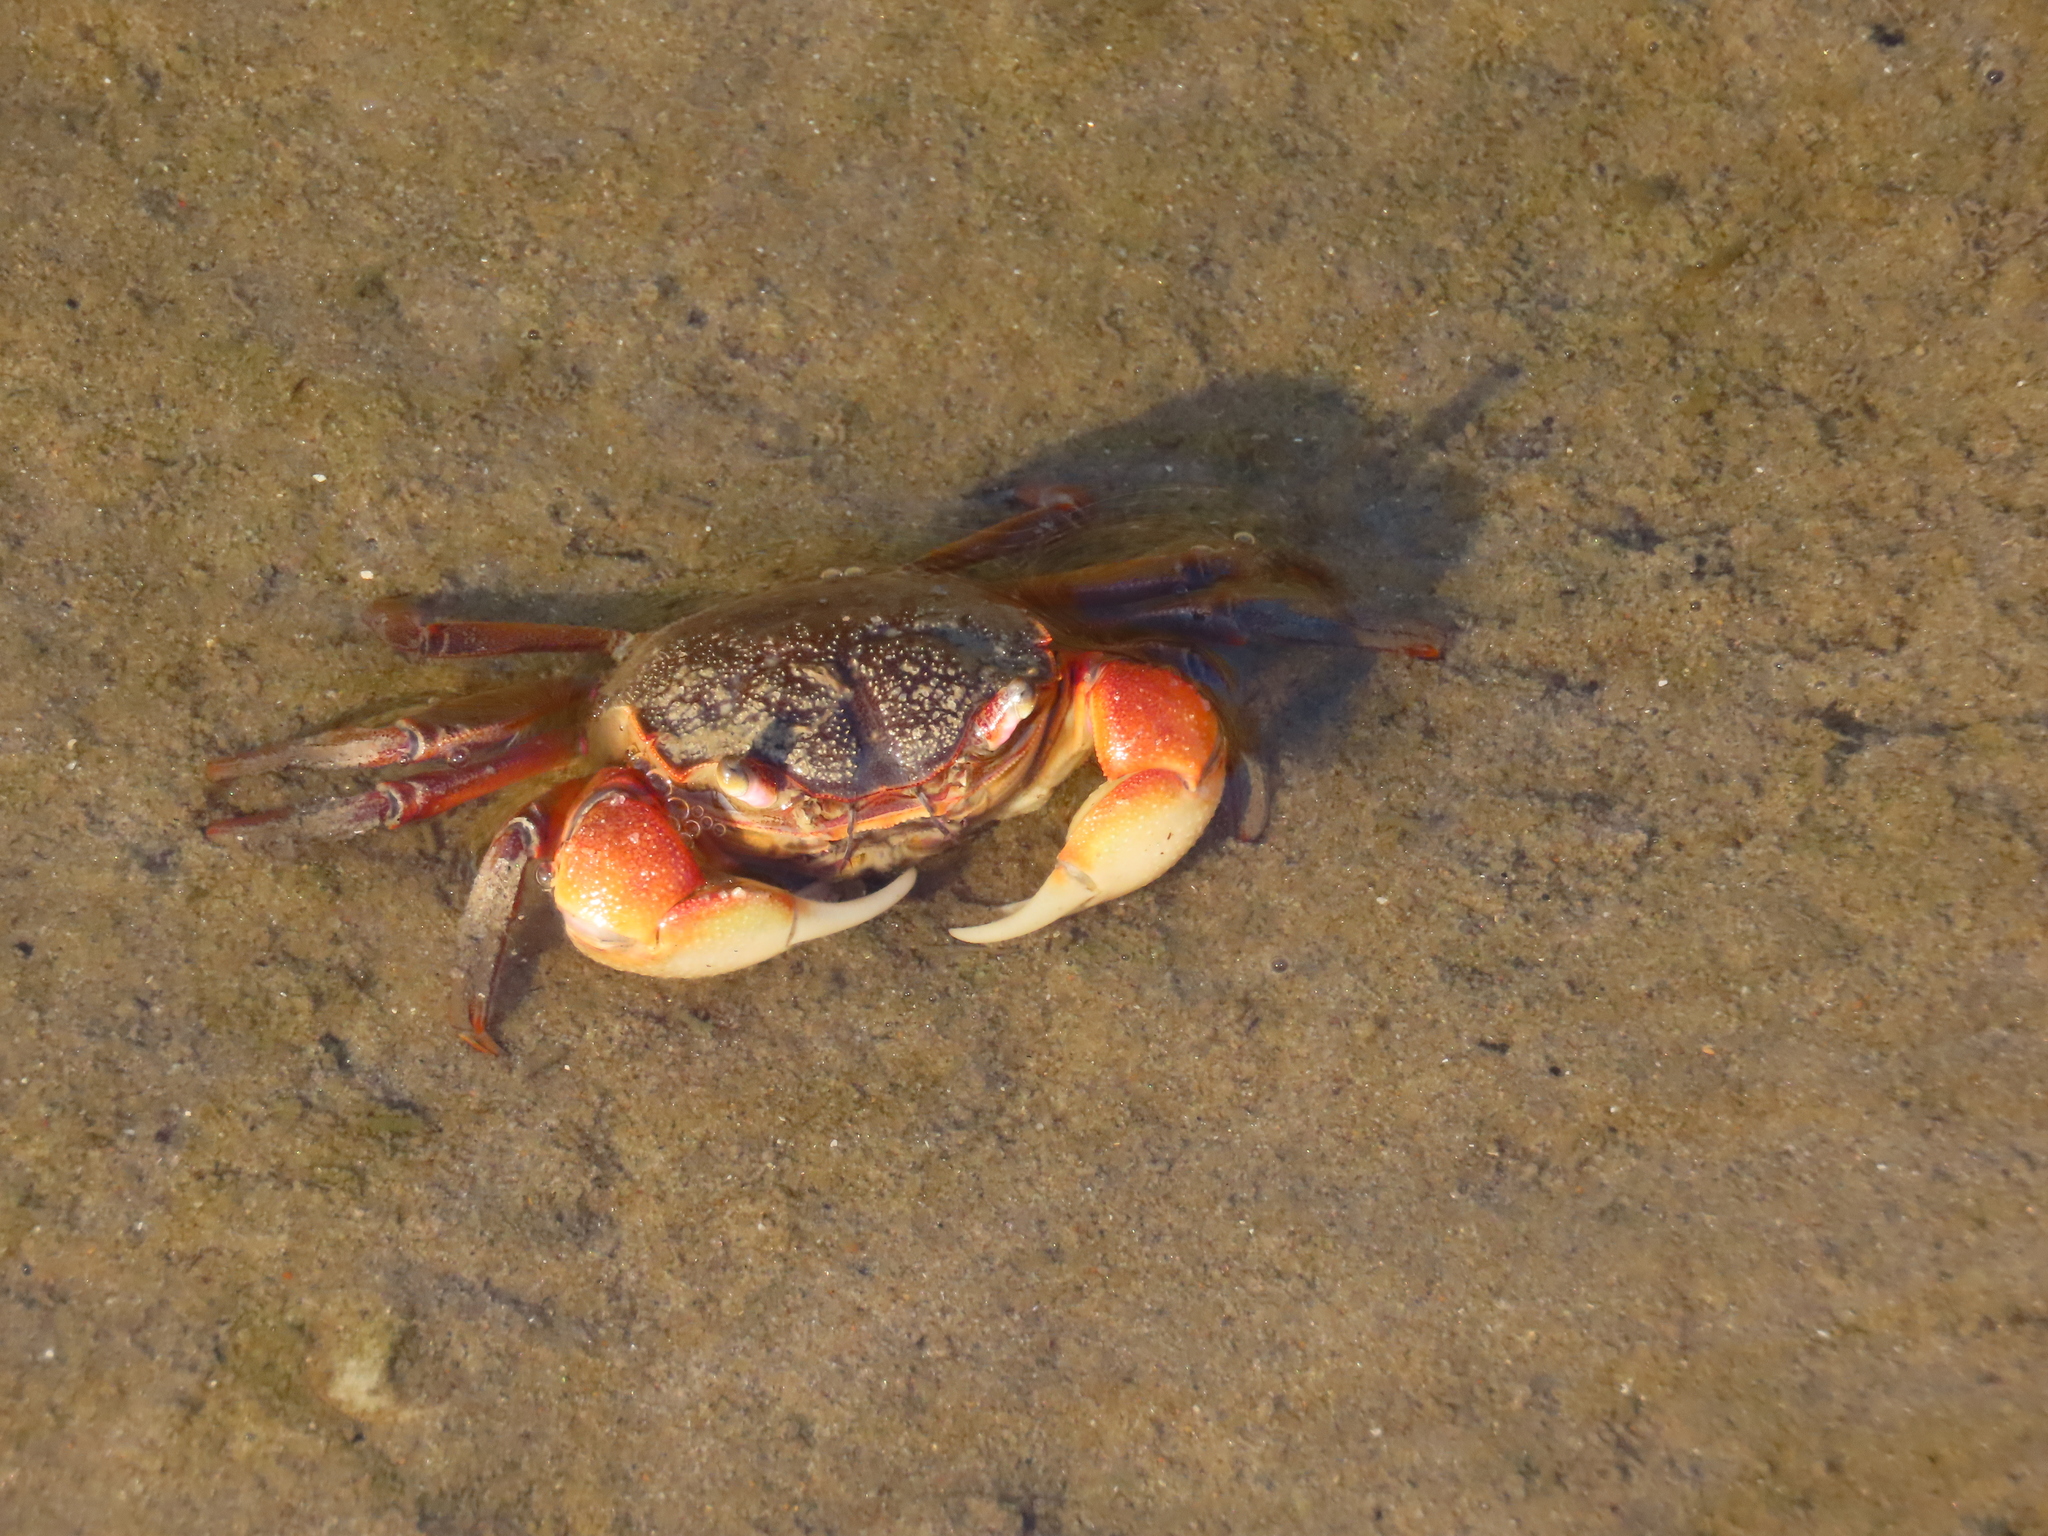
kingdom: Animalia
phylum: Arthropoda
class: Malacostraca
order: Decapoda
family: Varunidae
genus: Neohelice
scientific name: Neohelice granulata
